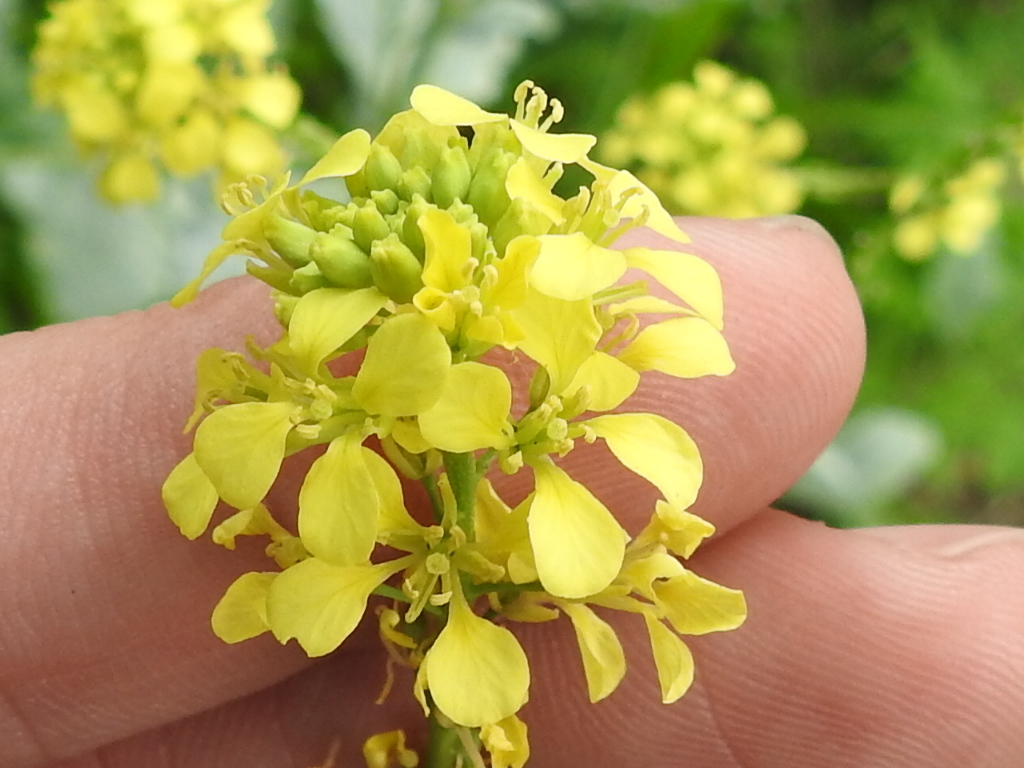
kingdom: Plantae
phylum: Tracheophyta
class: Magnoliopsida
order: Brassicales
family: Brassicaceae
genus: Rapistrum
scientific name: Rapistrum rugosum
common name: Annual bastardcabbage
